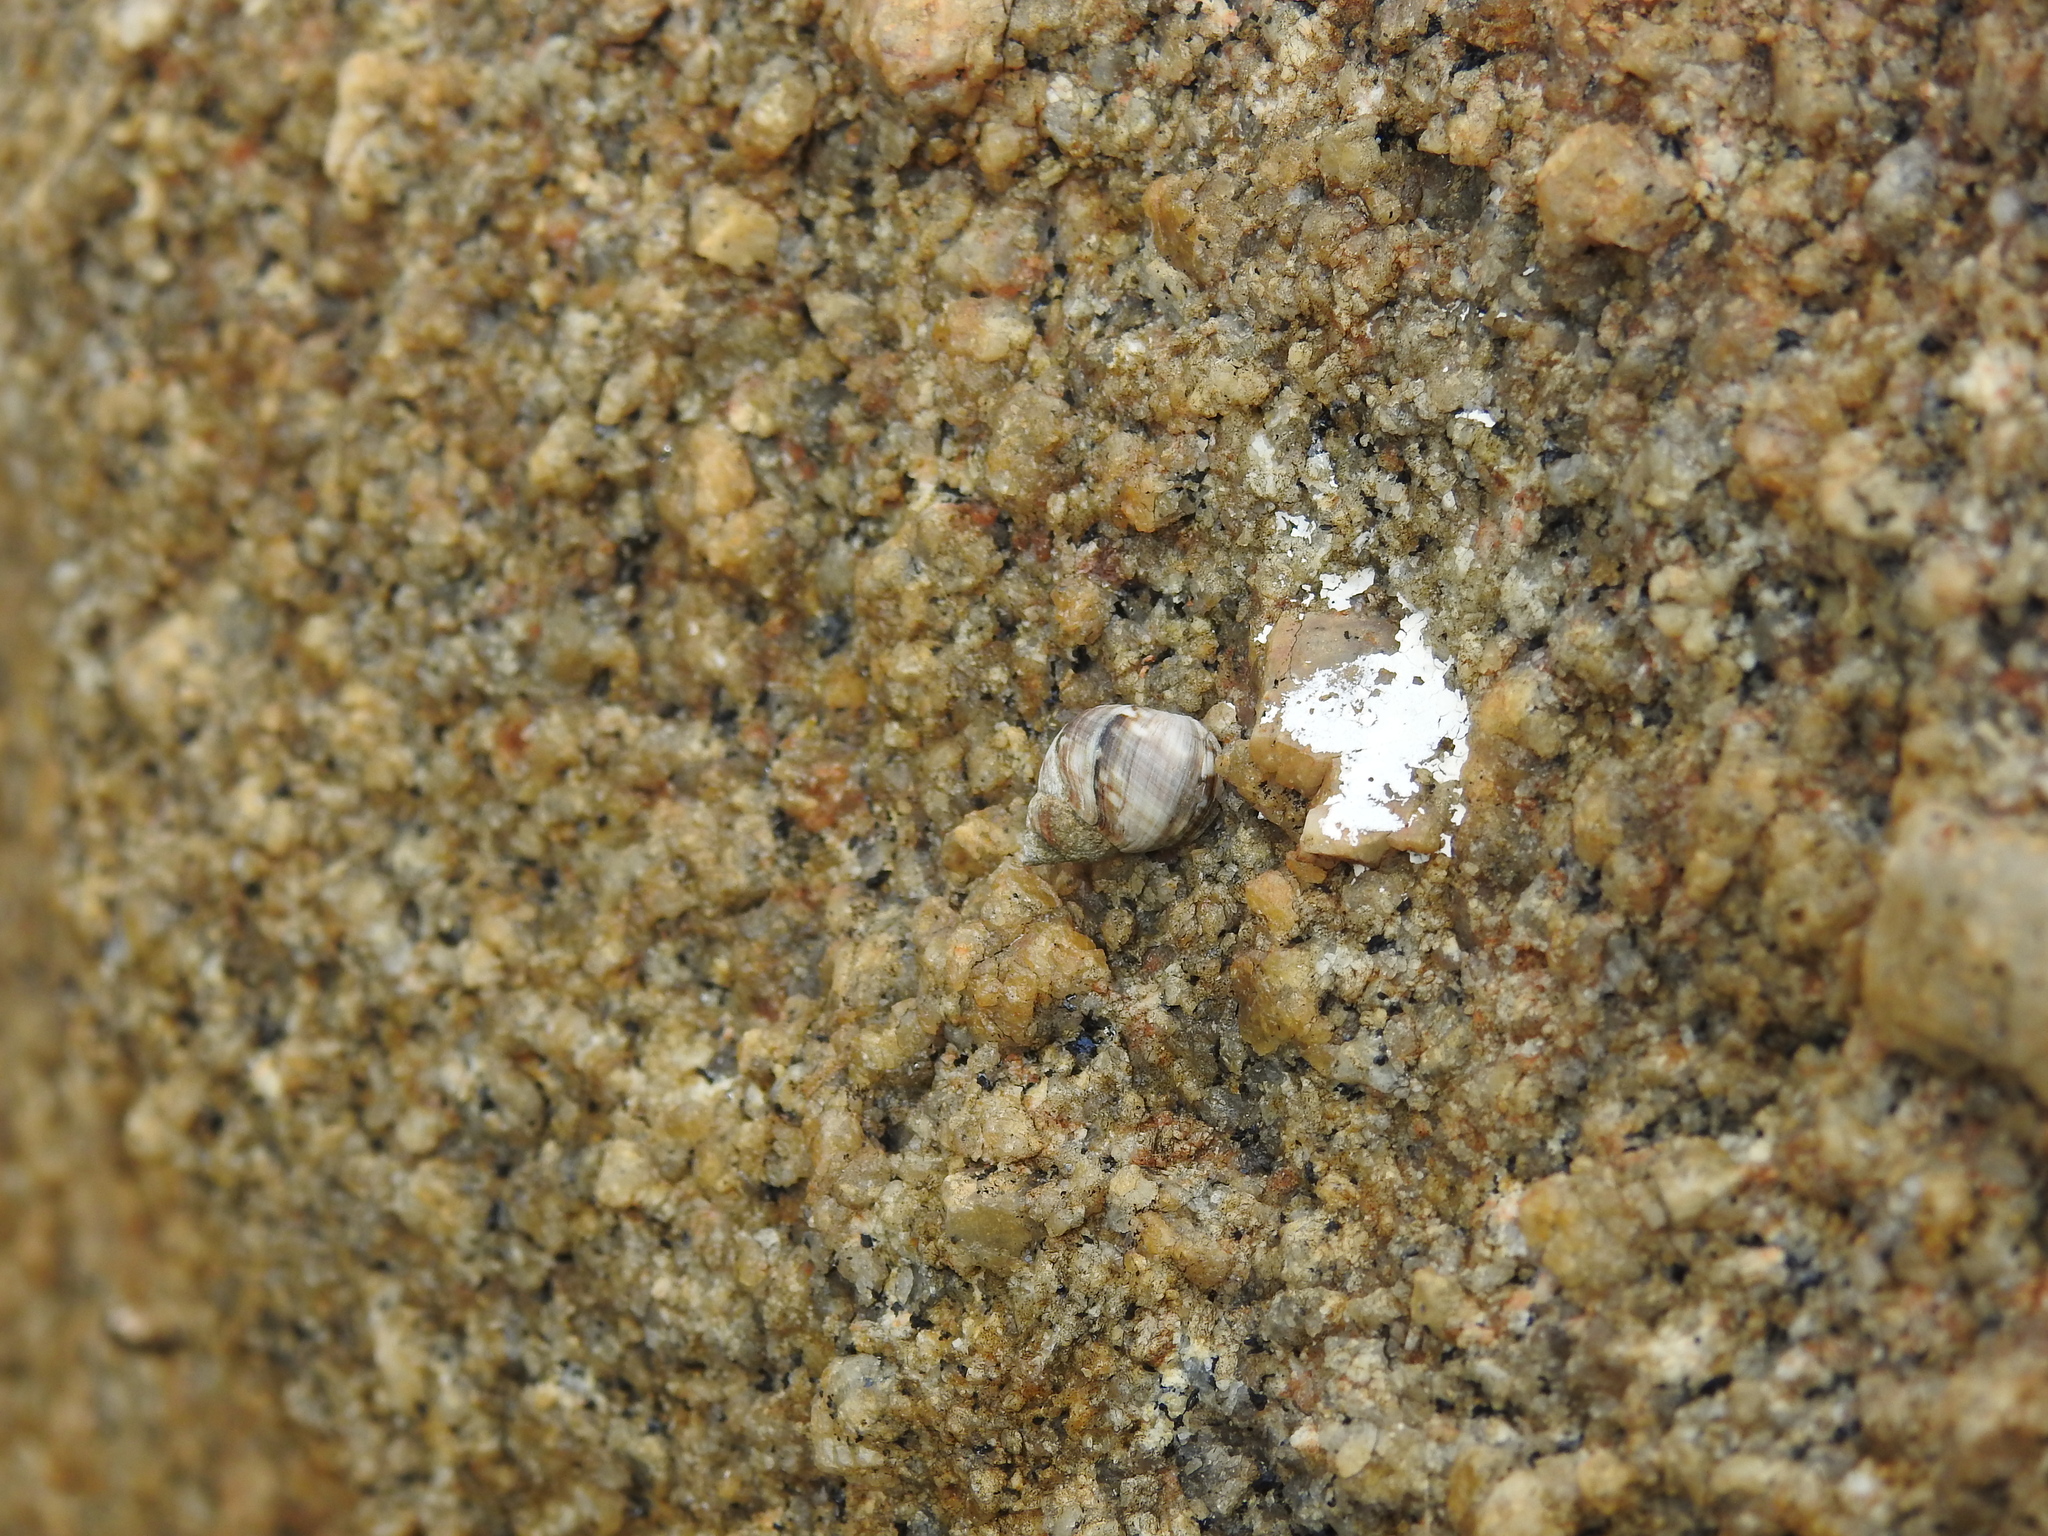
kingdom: Animalia
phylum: Mollusca
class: Gastropoda
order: Littorinimorpha
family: Littorinidae
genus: Littorina
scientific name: Littorina keenae
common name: Eroded periwinkle
